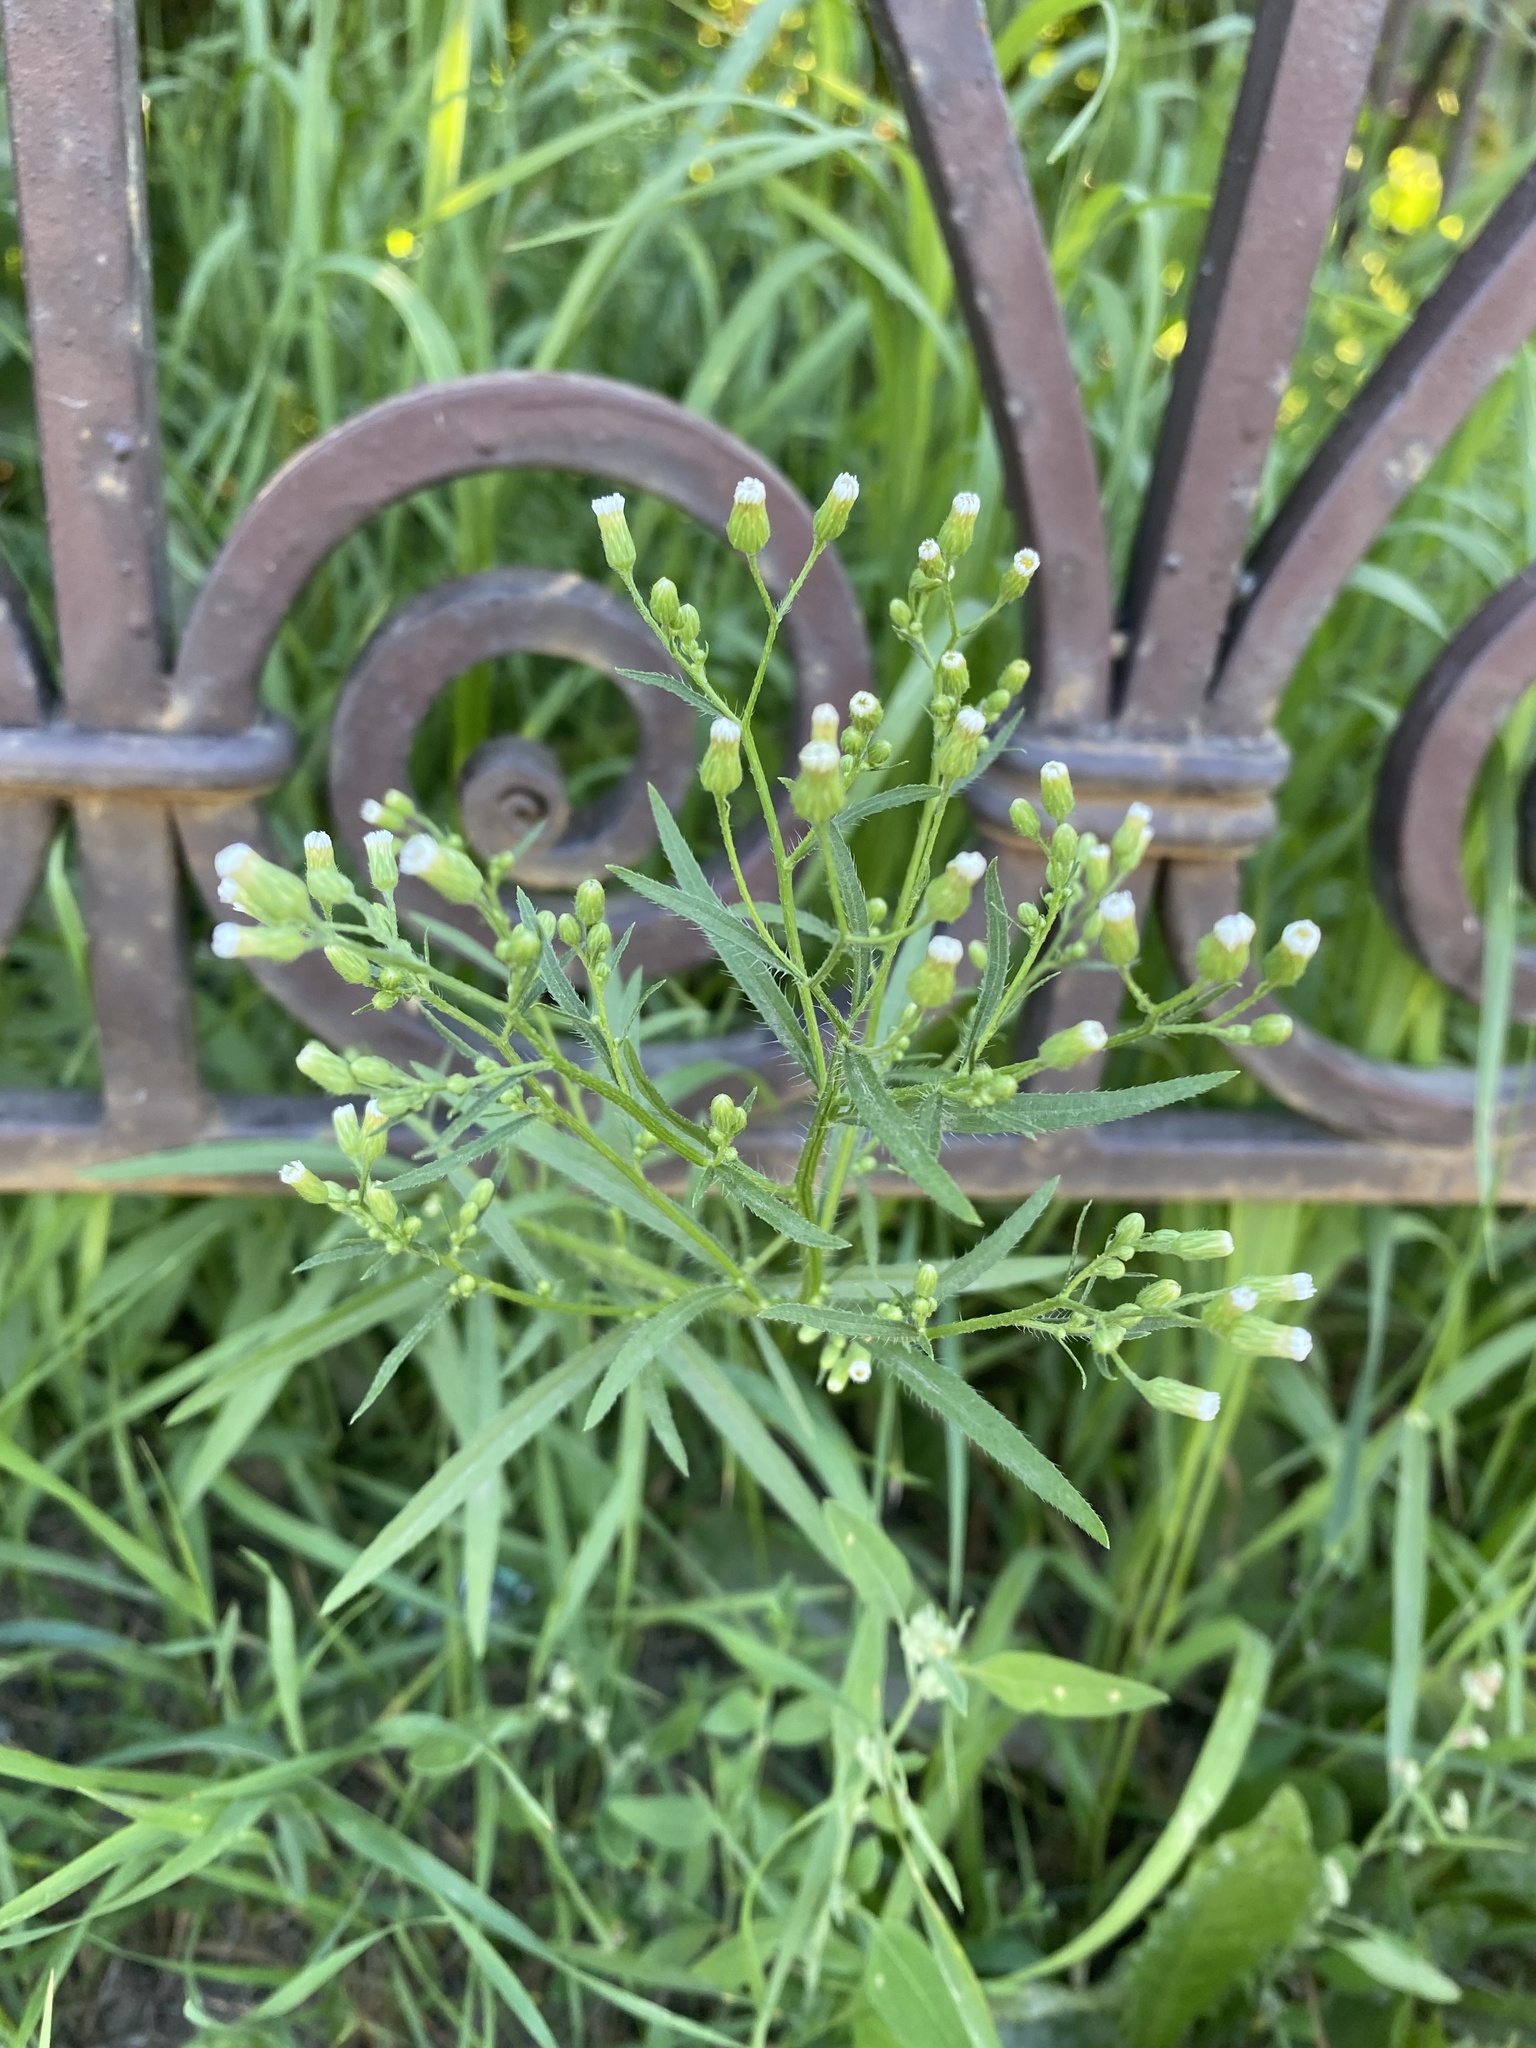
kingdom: Plantae
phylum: Tracheophyta
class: Magnoliopsida
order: Asterales
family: Asteraceae
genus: Erigeron
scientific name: Erigeron canadensis
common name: Canadian fleabane
